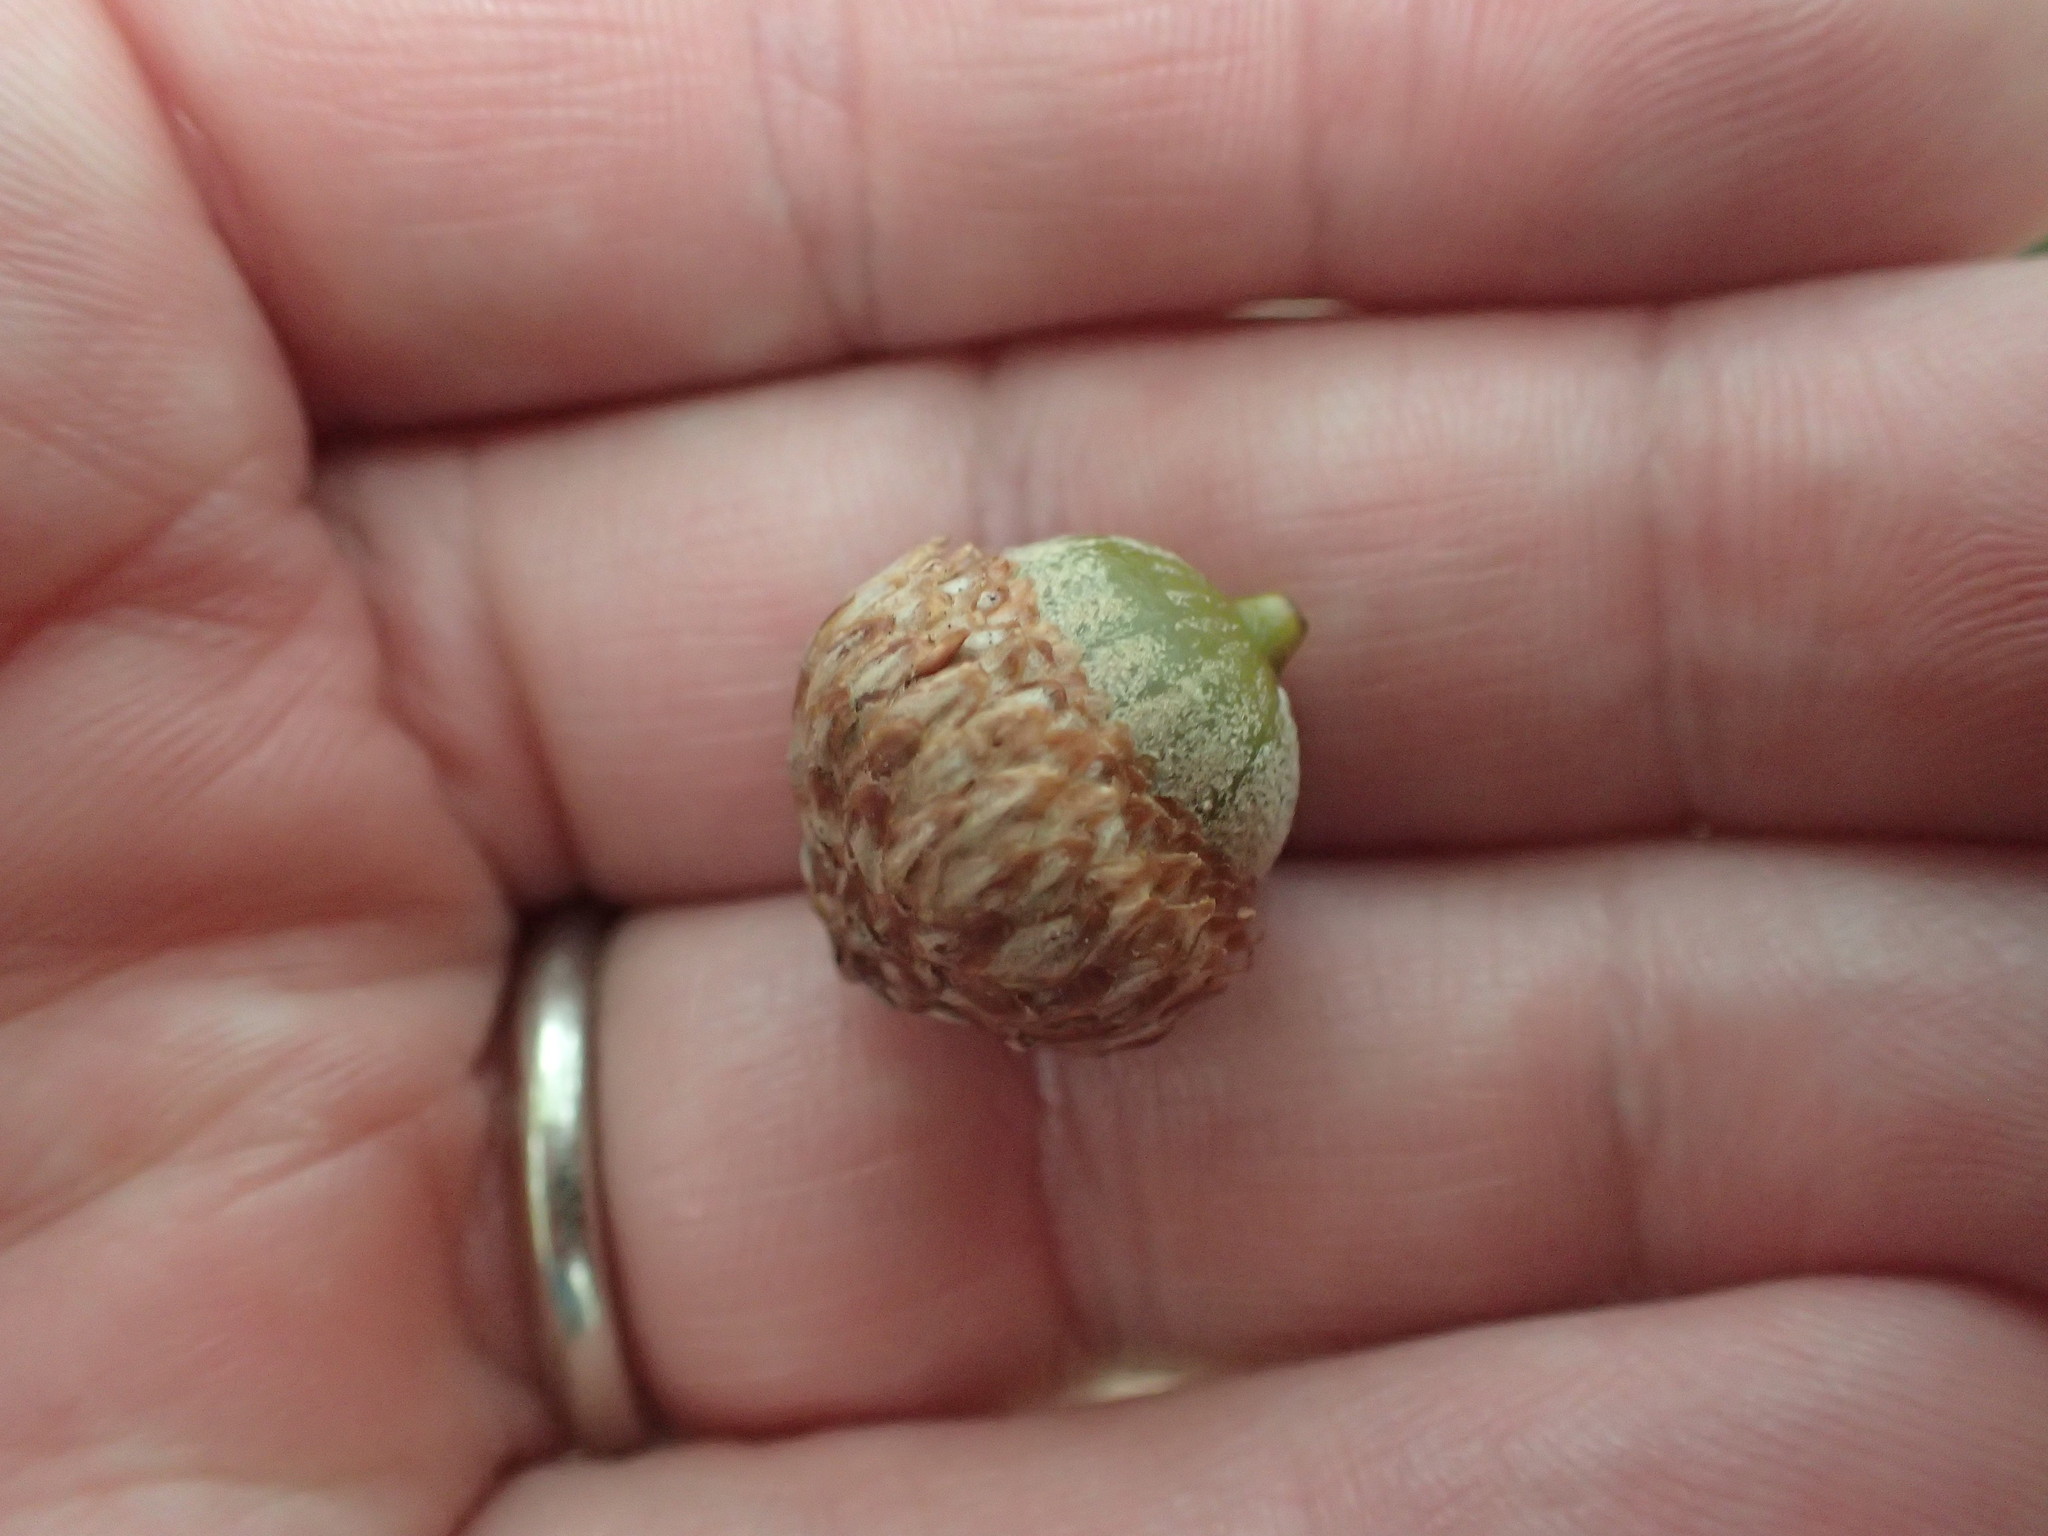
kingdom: Plantae
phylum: Tracheophyta
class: Magnoliopsida
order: Fagales
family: Fagaceae
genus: Quercus
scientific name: Quercus velutina
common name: Black oak
